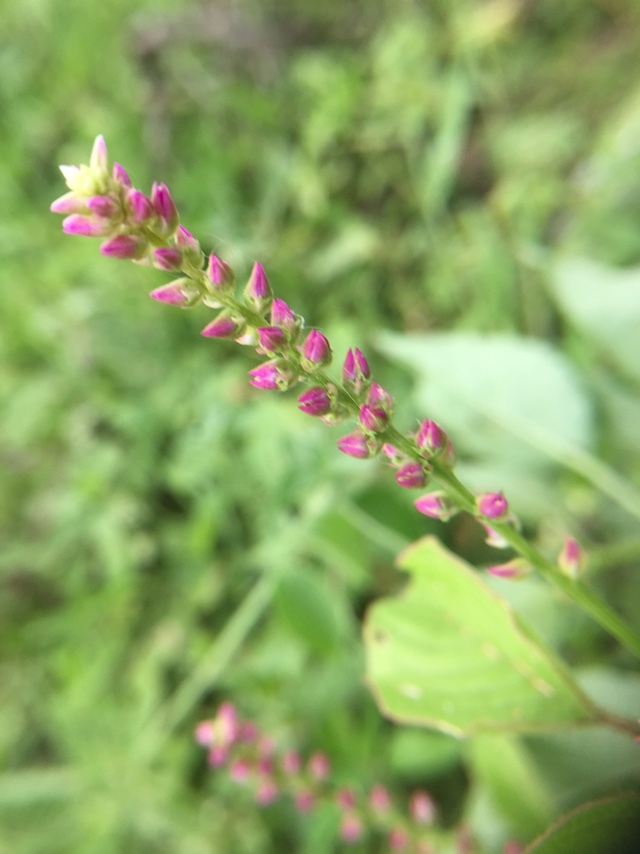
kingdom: Plantae
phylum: Tracheophyta
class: Magnoliopsida
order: Caryophyllales
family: Amaranthaceae
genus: Digera
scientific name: Digera muricata
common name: False amaranth
